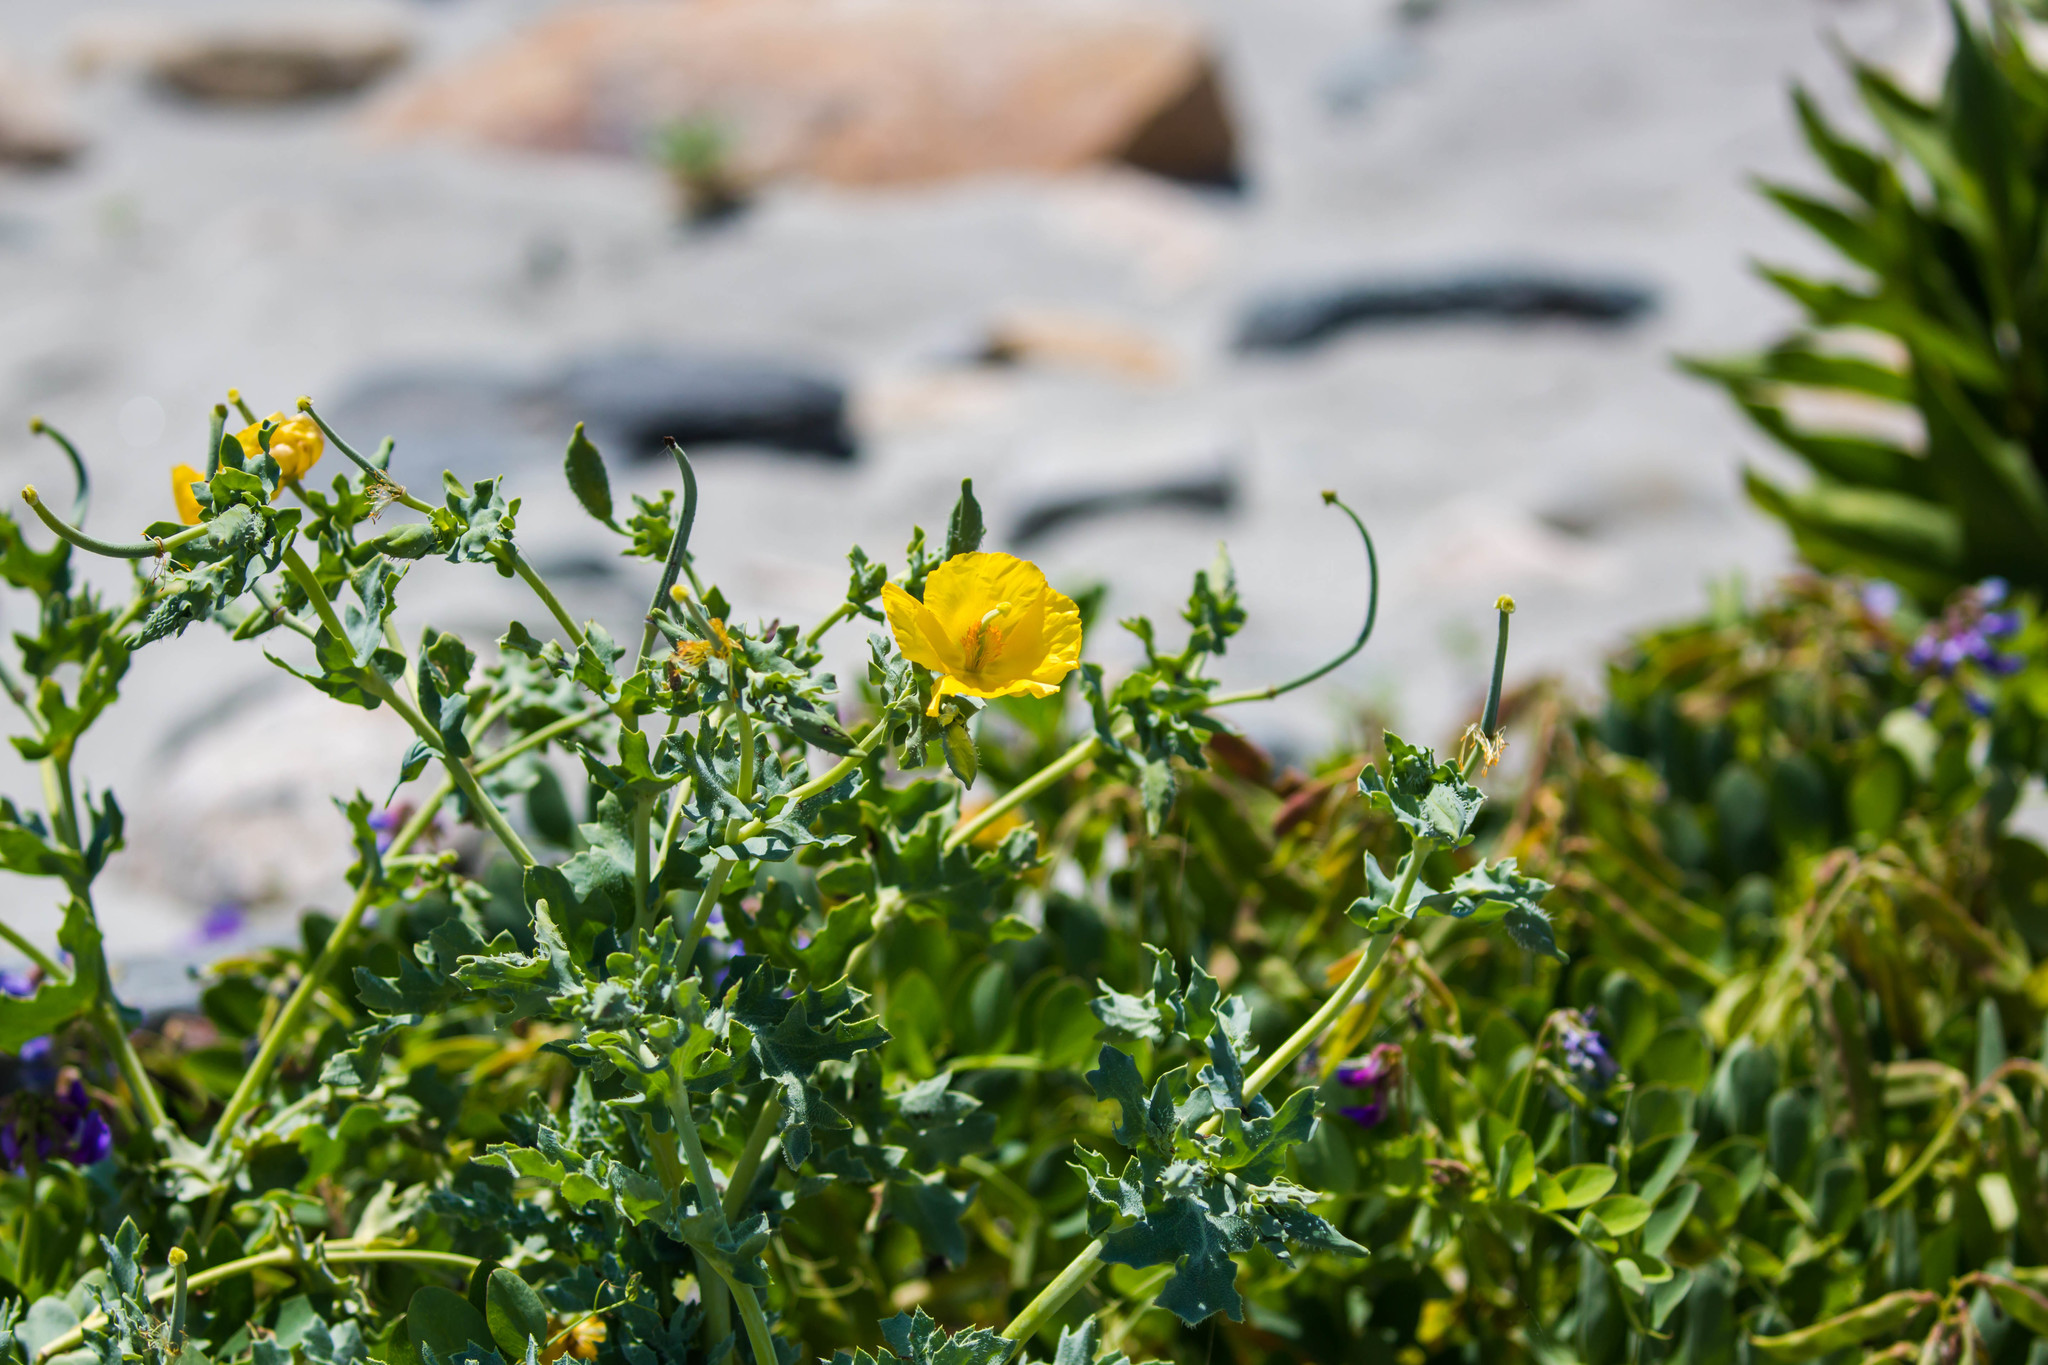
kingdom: Plantae
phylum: Tracheophyta
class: Magnoliopsida
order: Ranunculales
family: Papaveraceae
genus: Glaucium
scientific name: Glaucium flavum
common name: Yellow horned-poppy
